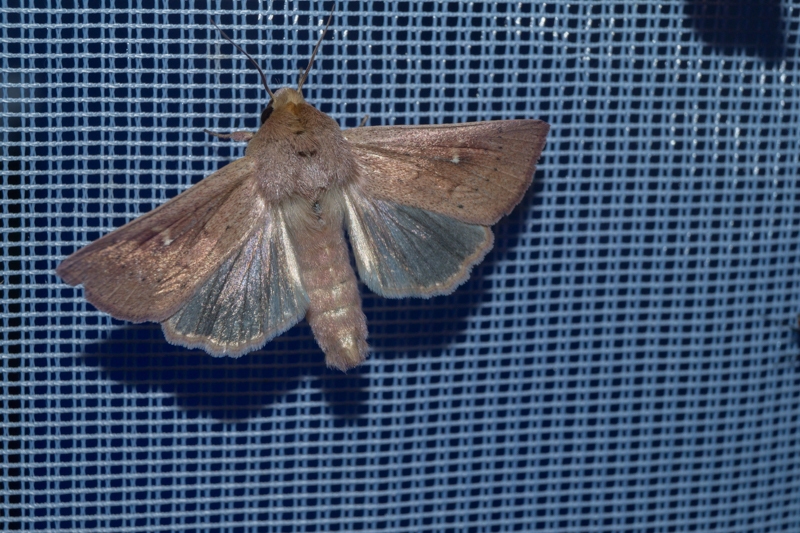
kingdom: Animalia
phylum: Arthropoda
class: Insecta
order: Lepidoptera
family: Noctuidae
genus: Mythimna
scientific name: Mythimna ferrago
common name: Clay
